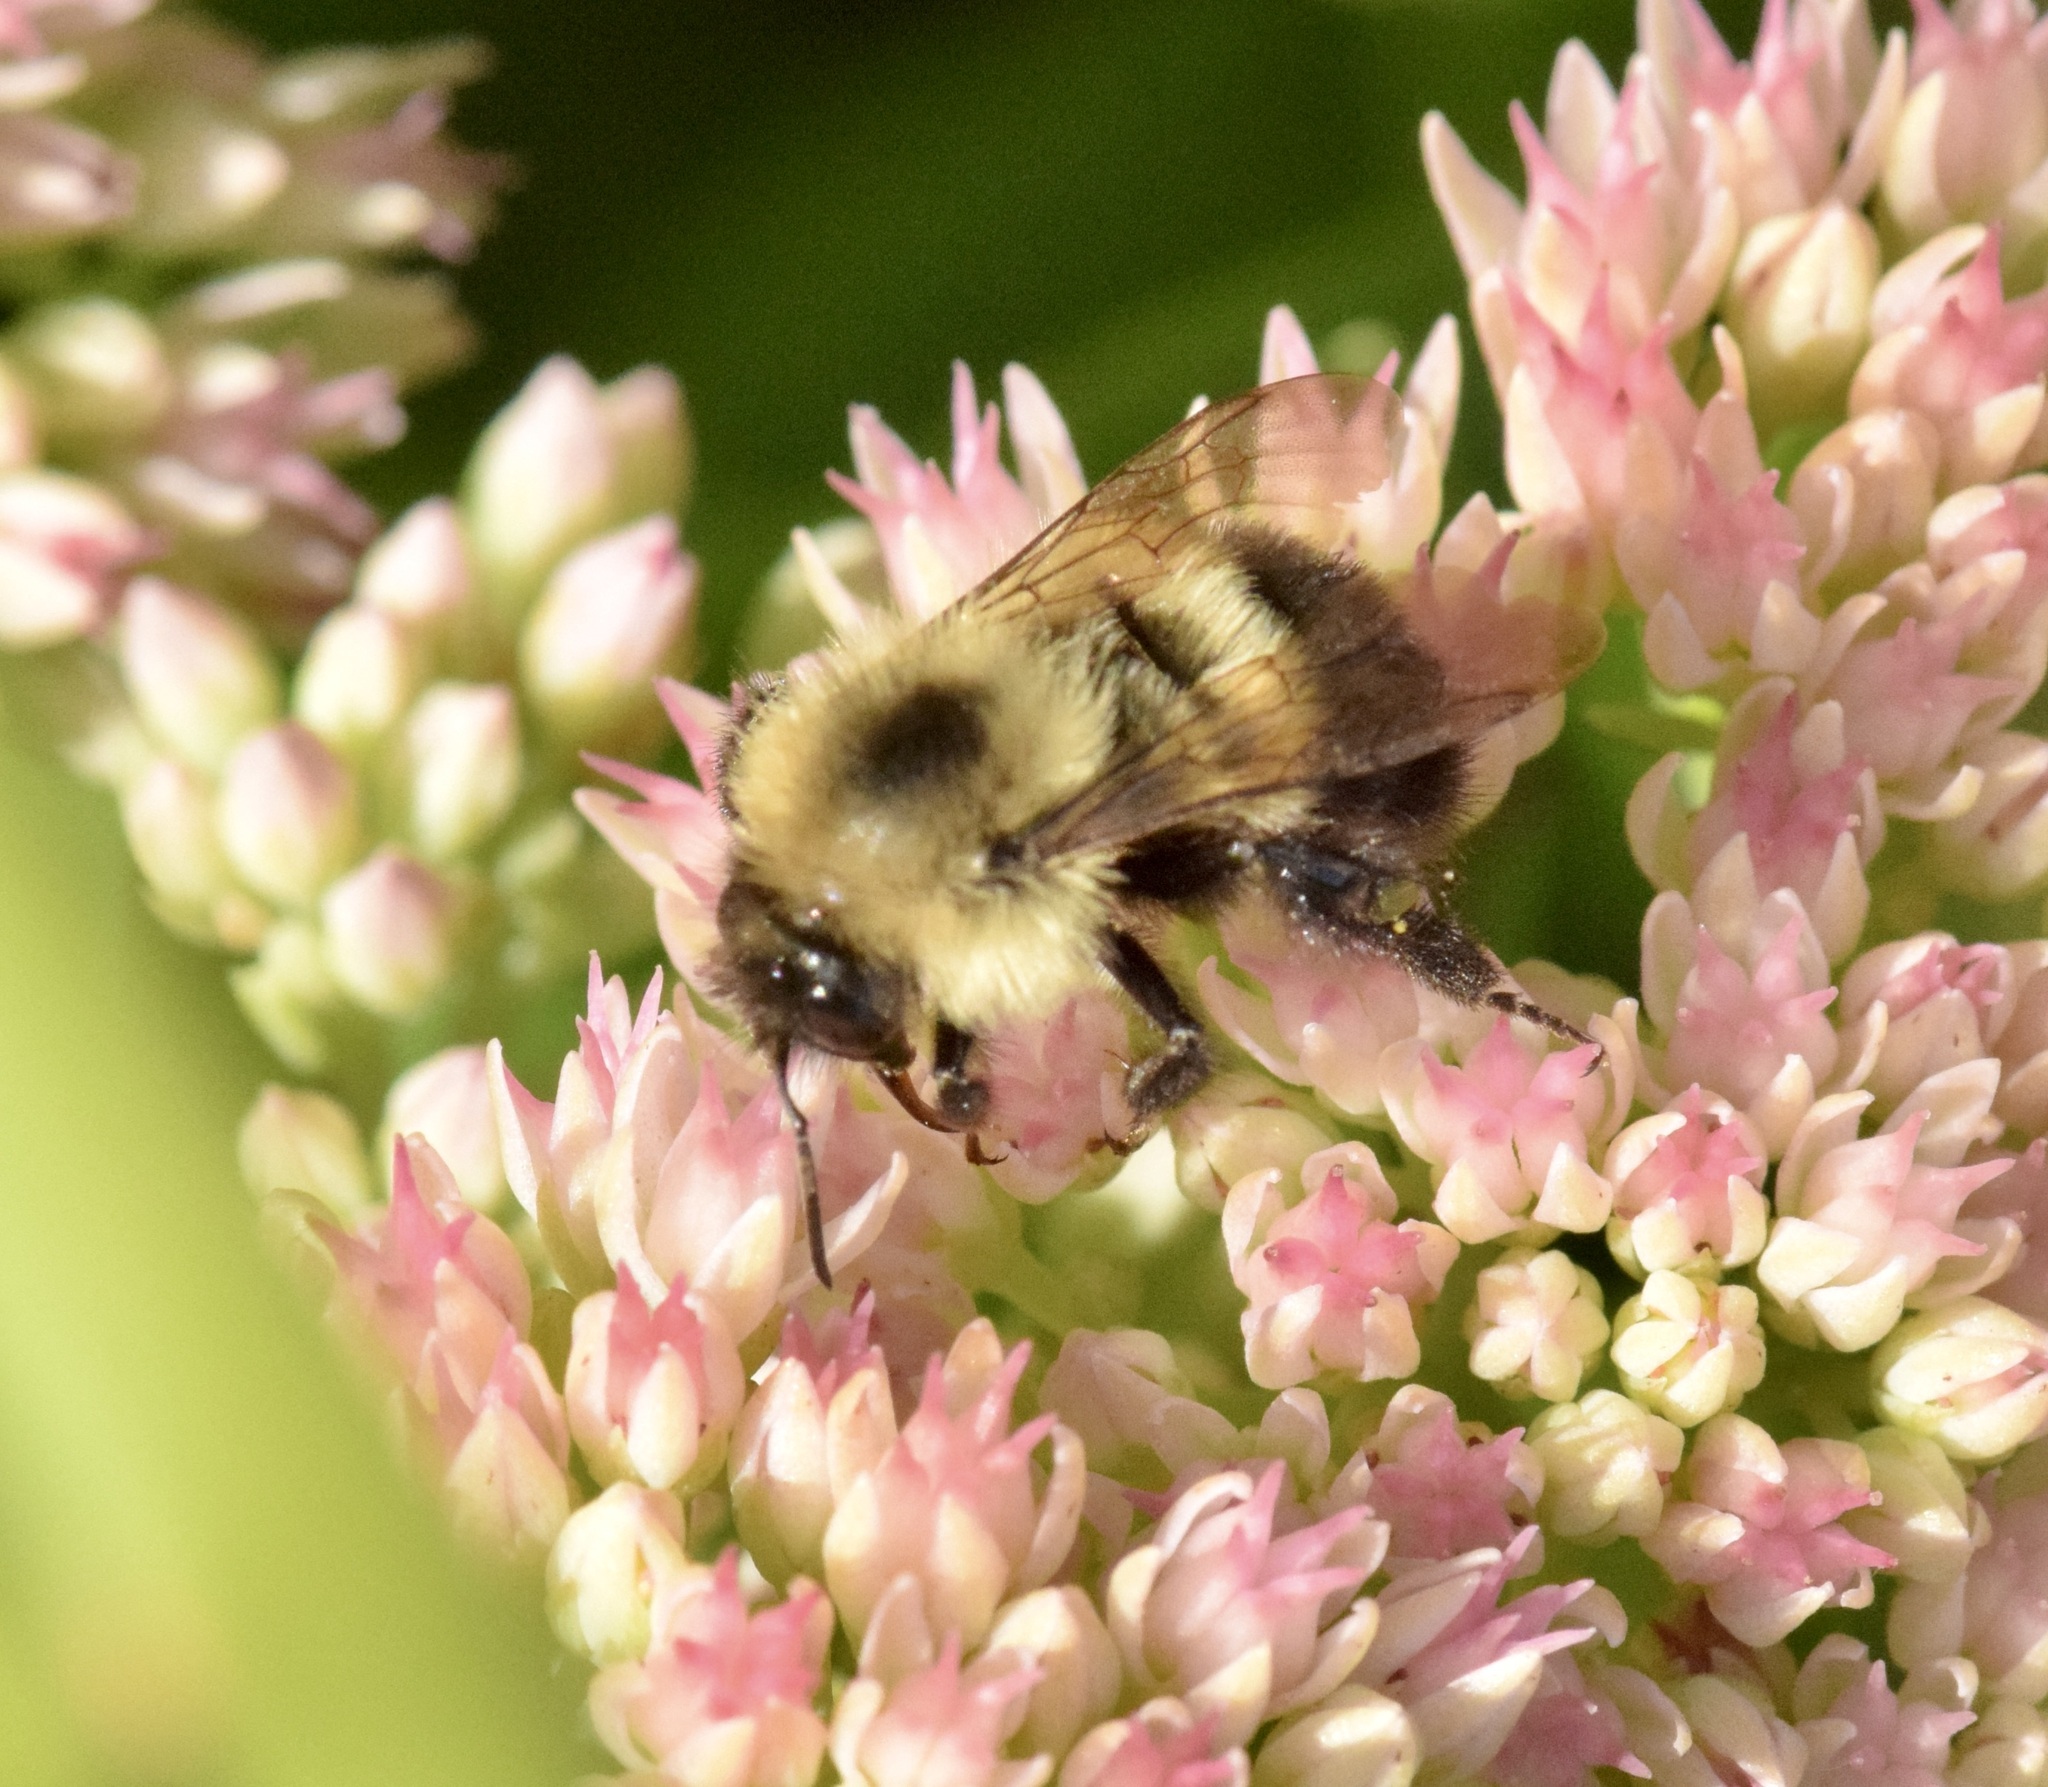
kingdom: Animalia
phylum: Arthropoda
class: Insecta
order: Hymenoptera
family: Apidae
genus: Pyrobombus
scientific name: Pyrobombus
